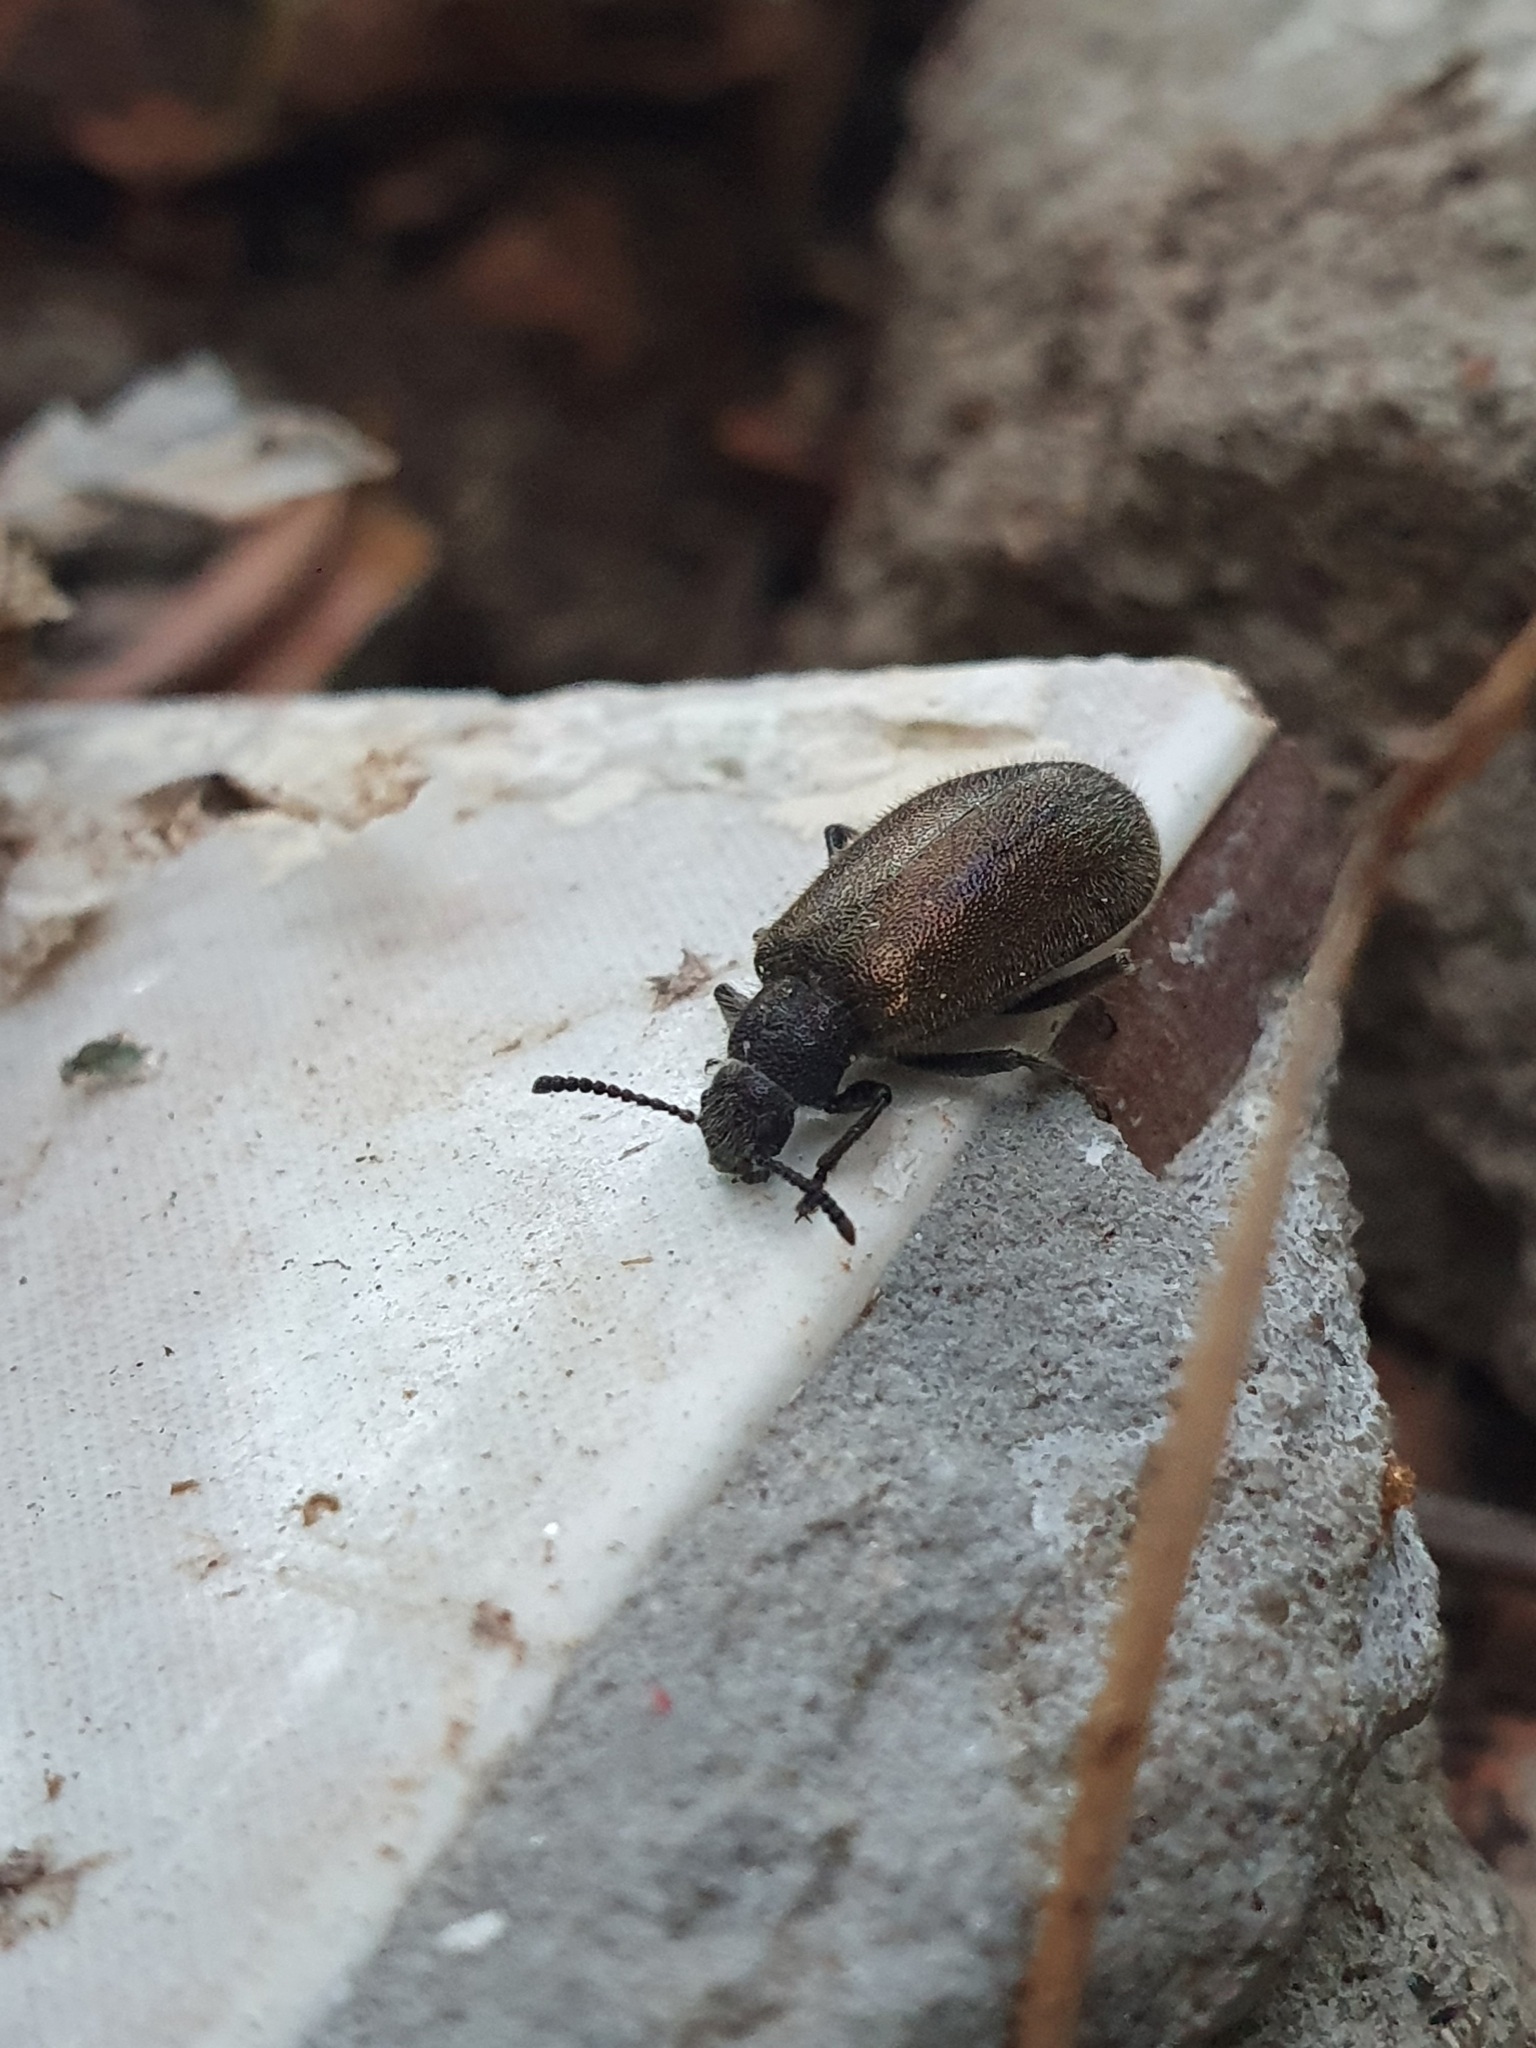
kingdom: Animalia
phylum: Arthropoda
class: Insecta
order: Coleoptera
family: Tenebrionidae
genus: Lagria
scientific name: Lagria villosa
